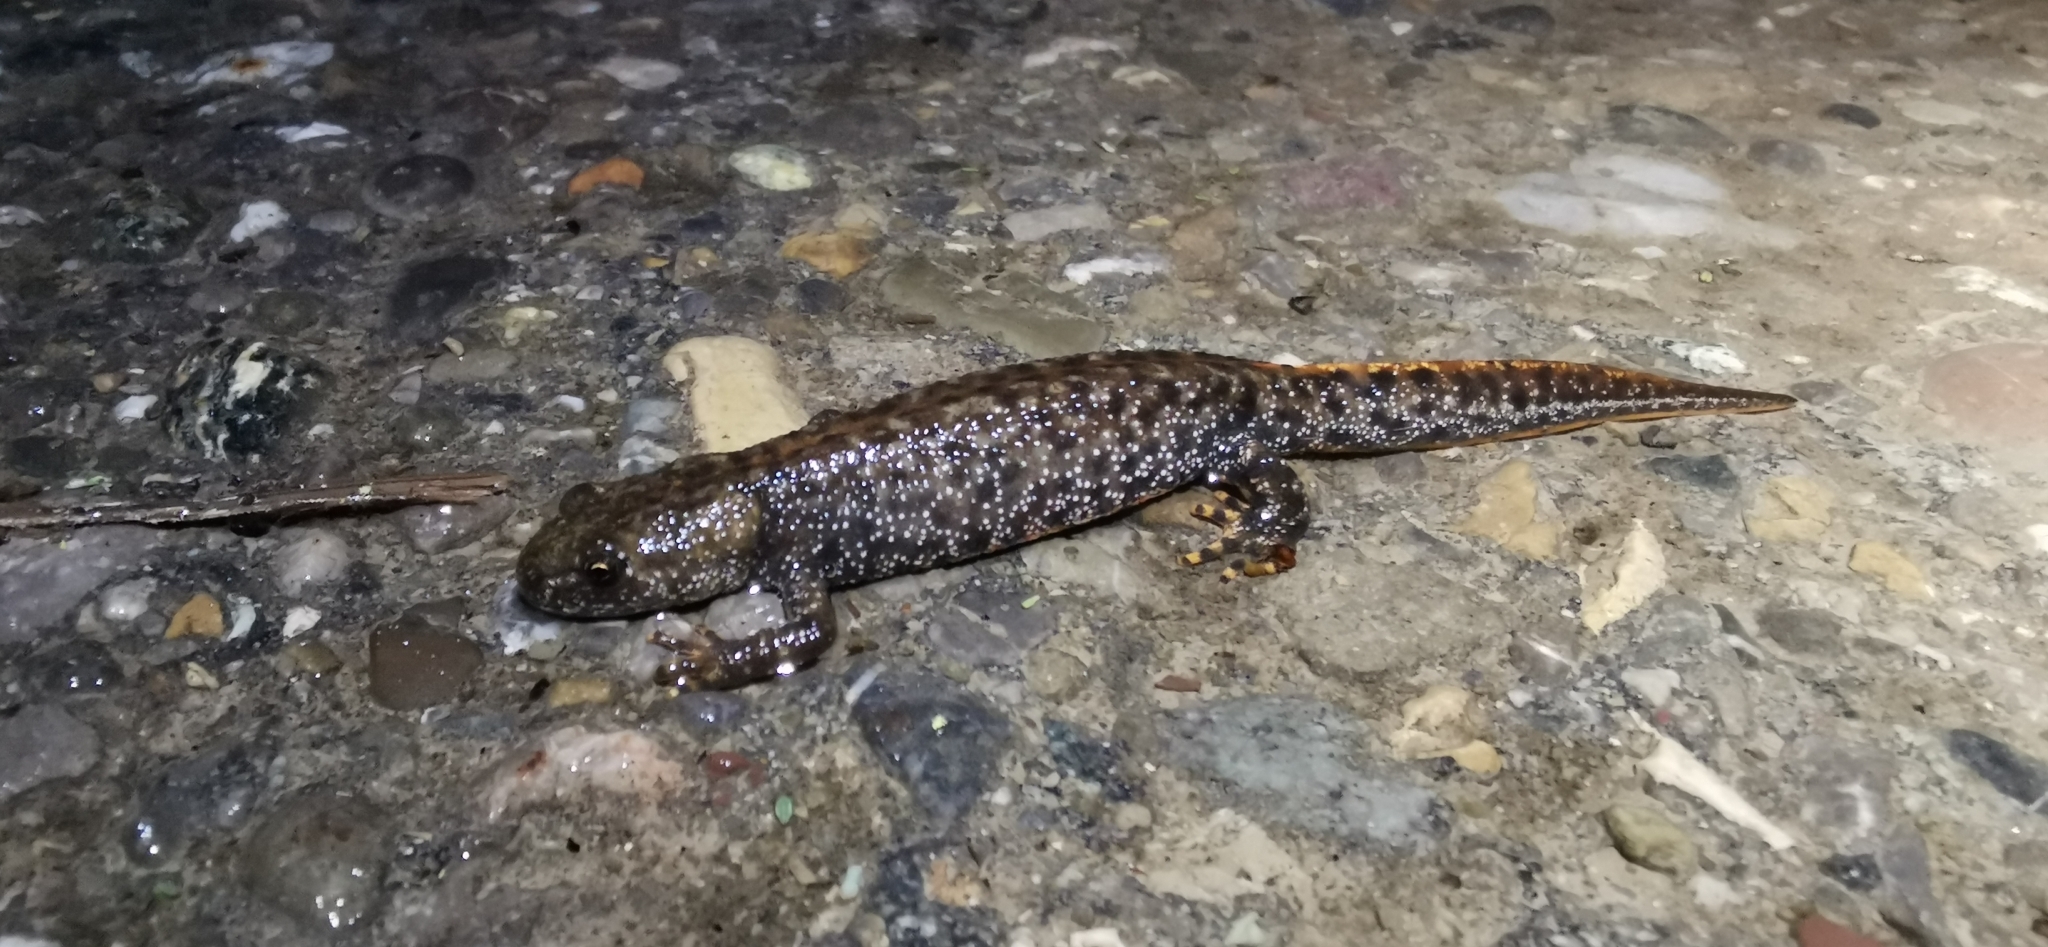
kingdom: Animalia
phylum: Chordata
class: Amphibia
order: Caudata
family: Salamandridae
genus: Triturus
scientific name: Triturus cristatus
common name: Crested newt
